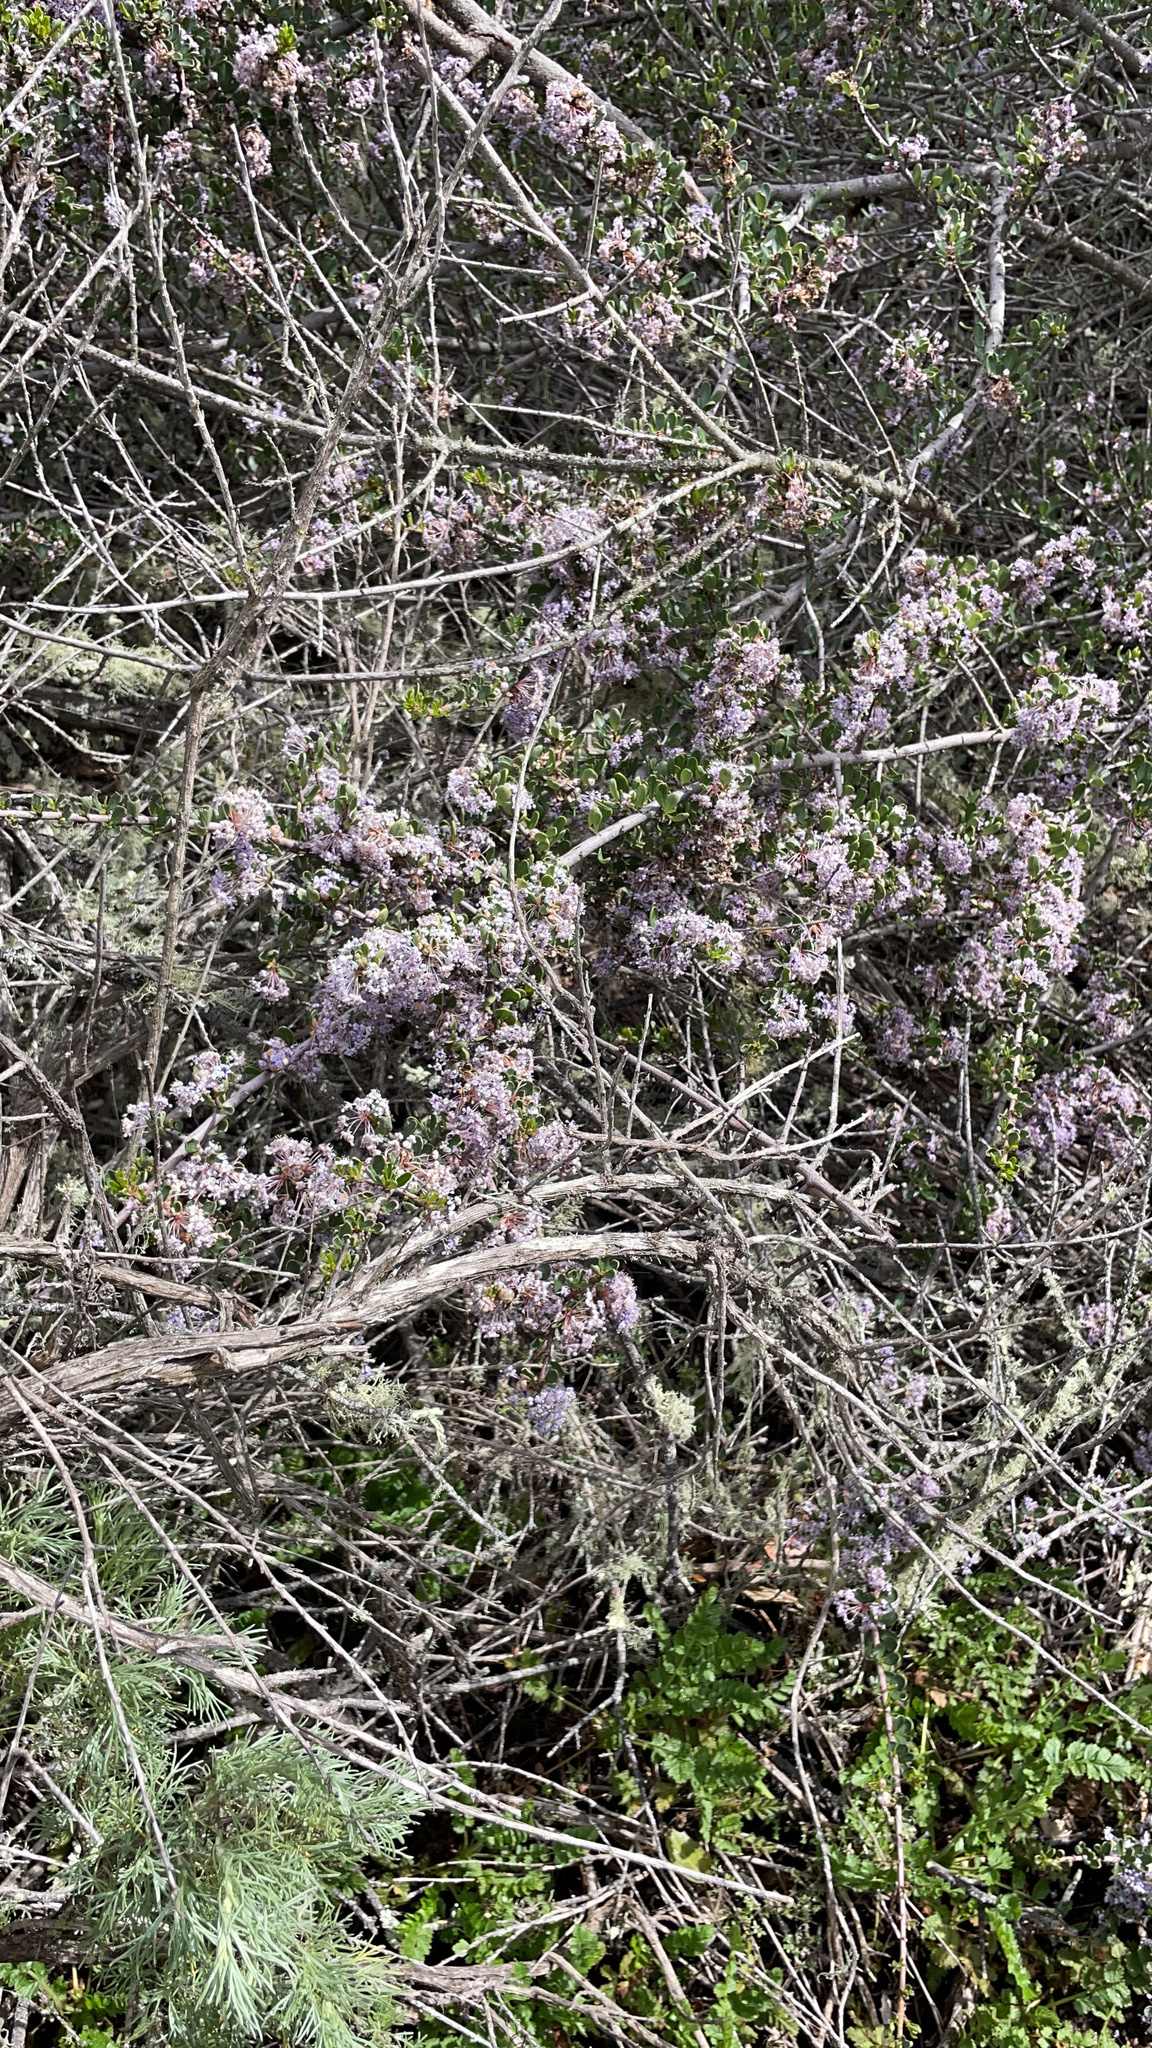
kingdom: Plantae
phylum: Tracheophyta
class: Magnoliopsida
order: Rosales
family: Rhamnaceae
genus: Ceanothus
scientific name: Ceanothus cuneatus
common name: Cuneate ceanothus
